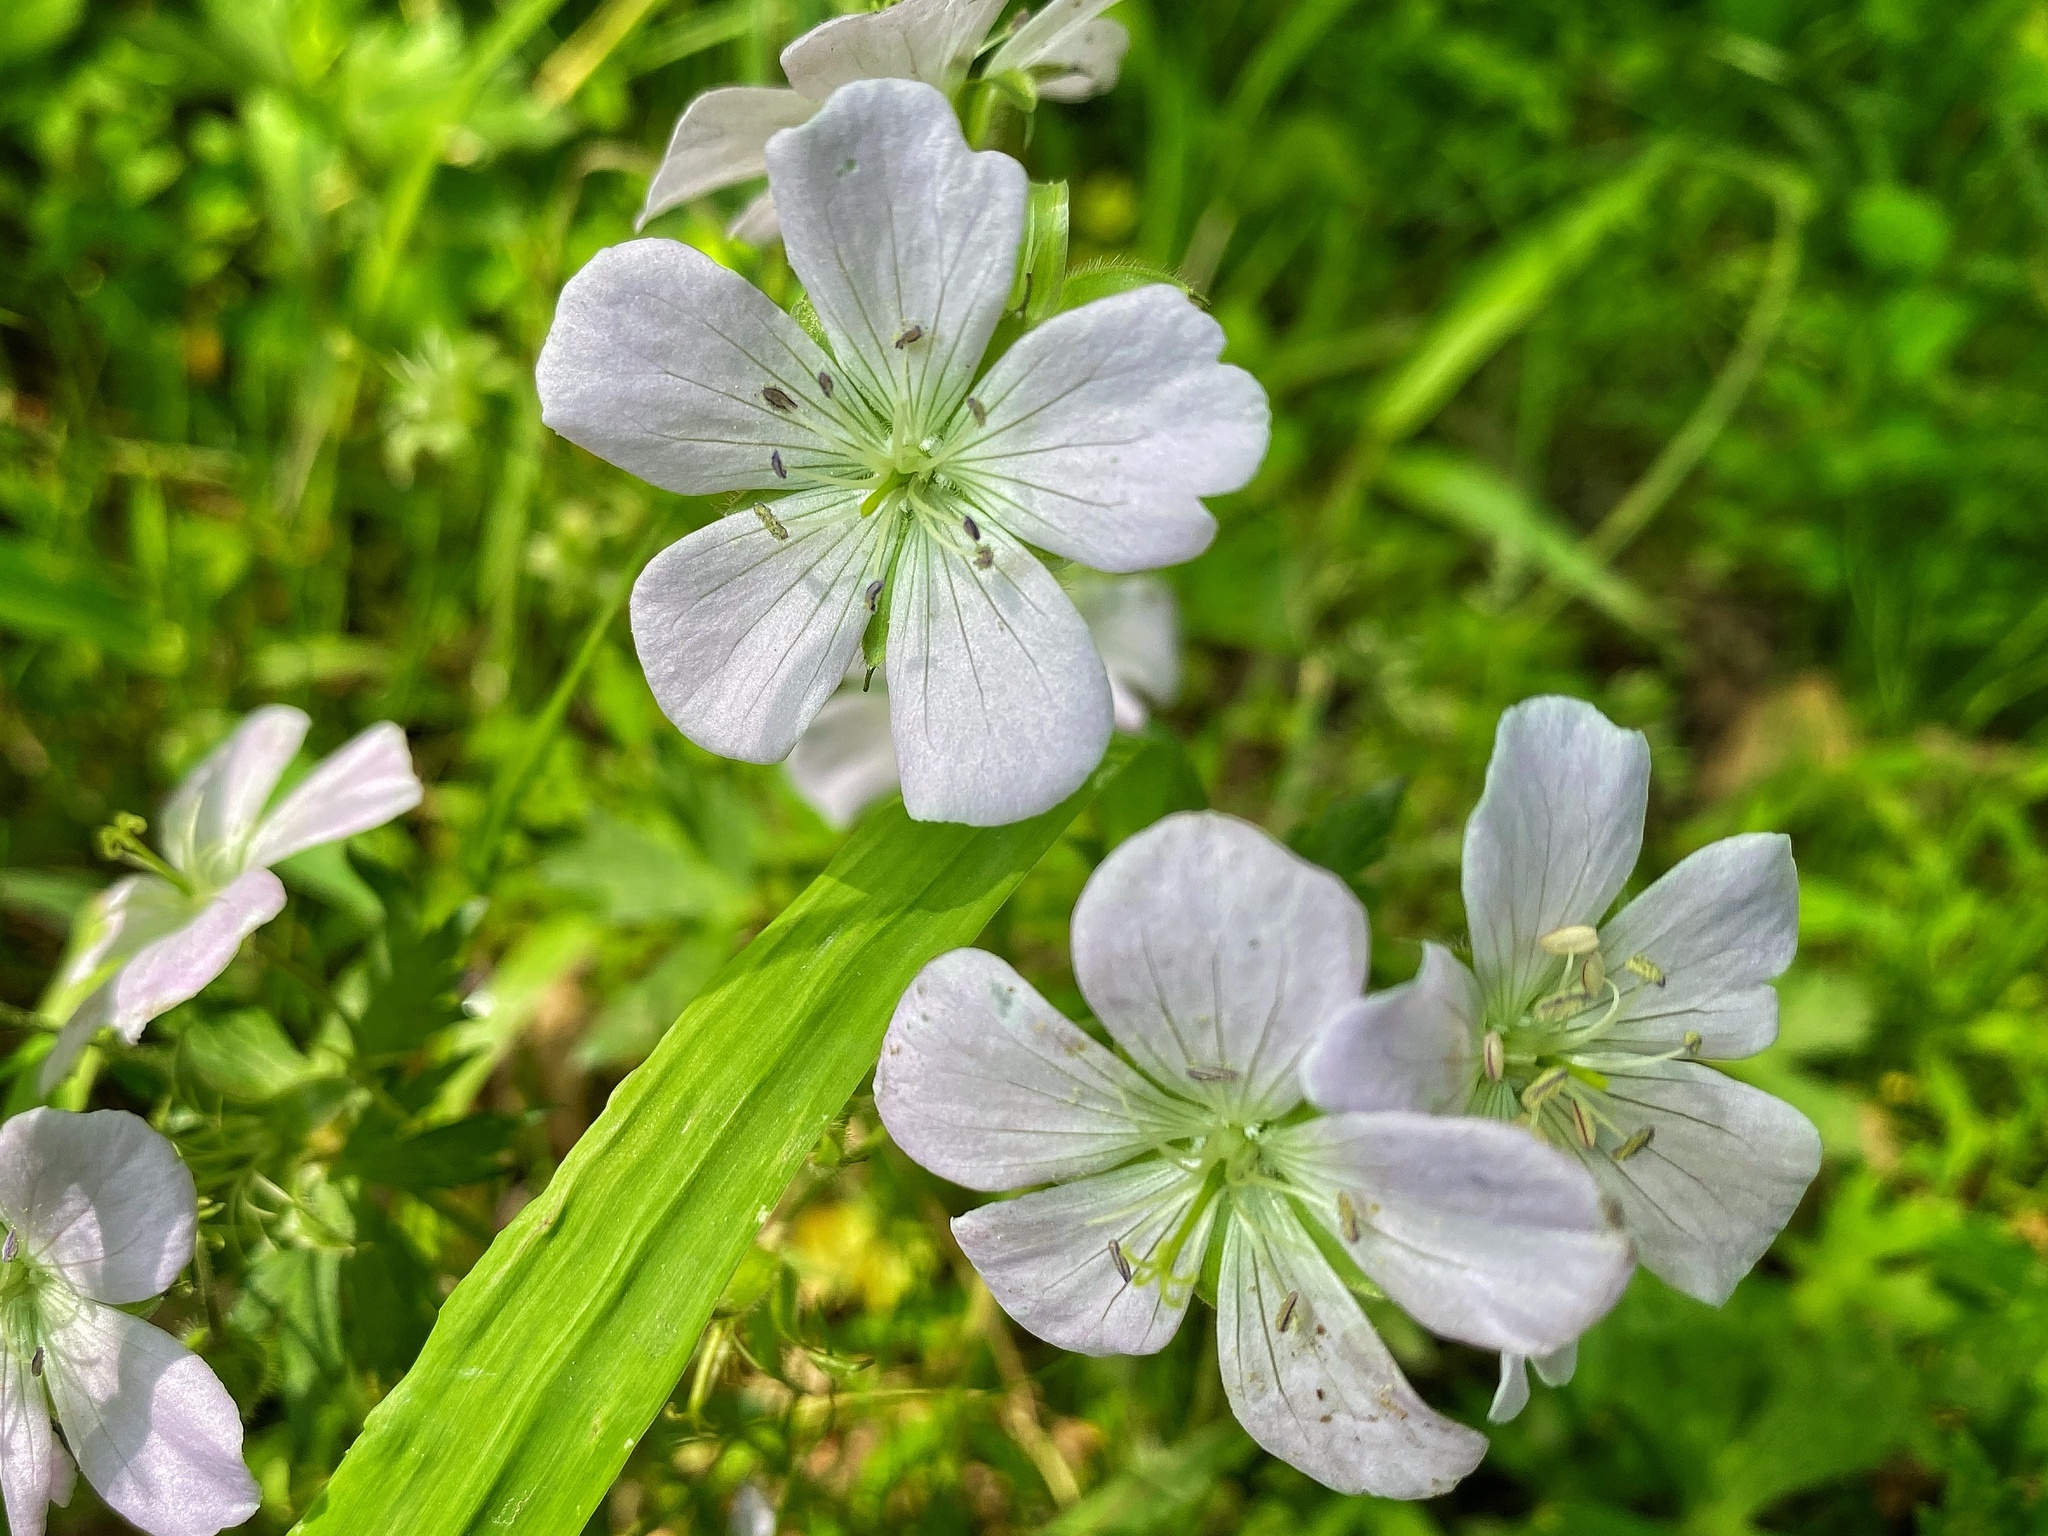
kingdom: Plantae
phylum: Tracheophyta
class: Magnoliopsida
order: Geraniales
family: Geraniaceae
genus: Geranium
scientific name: Geranium maculatum
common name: Spotted geranium
